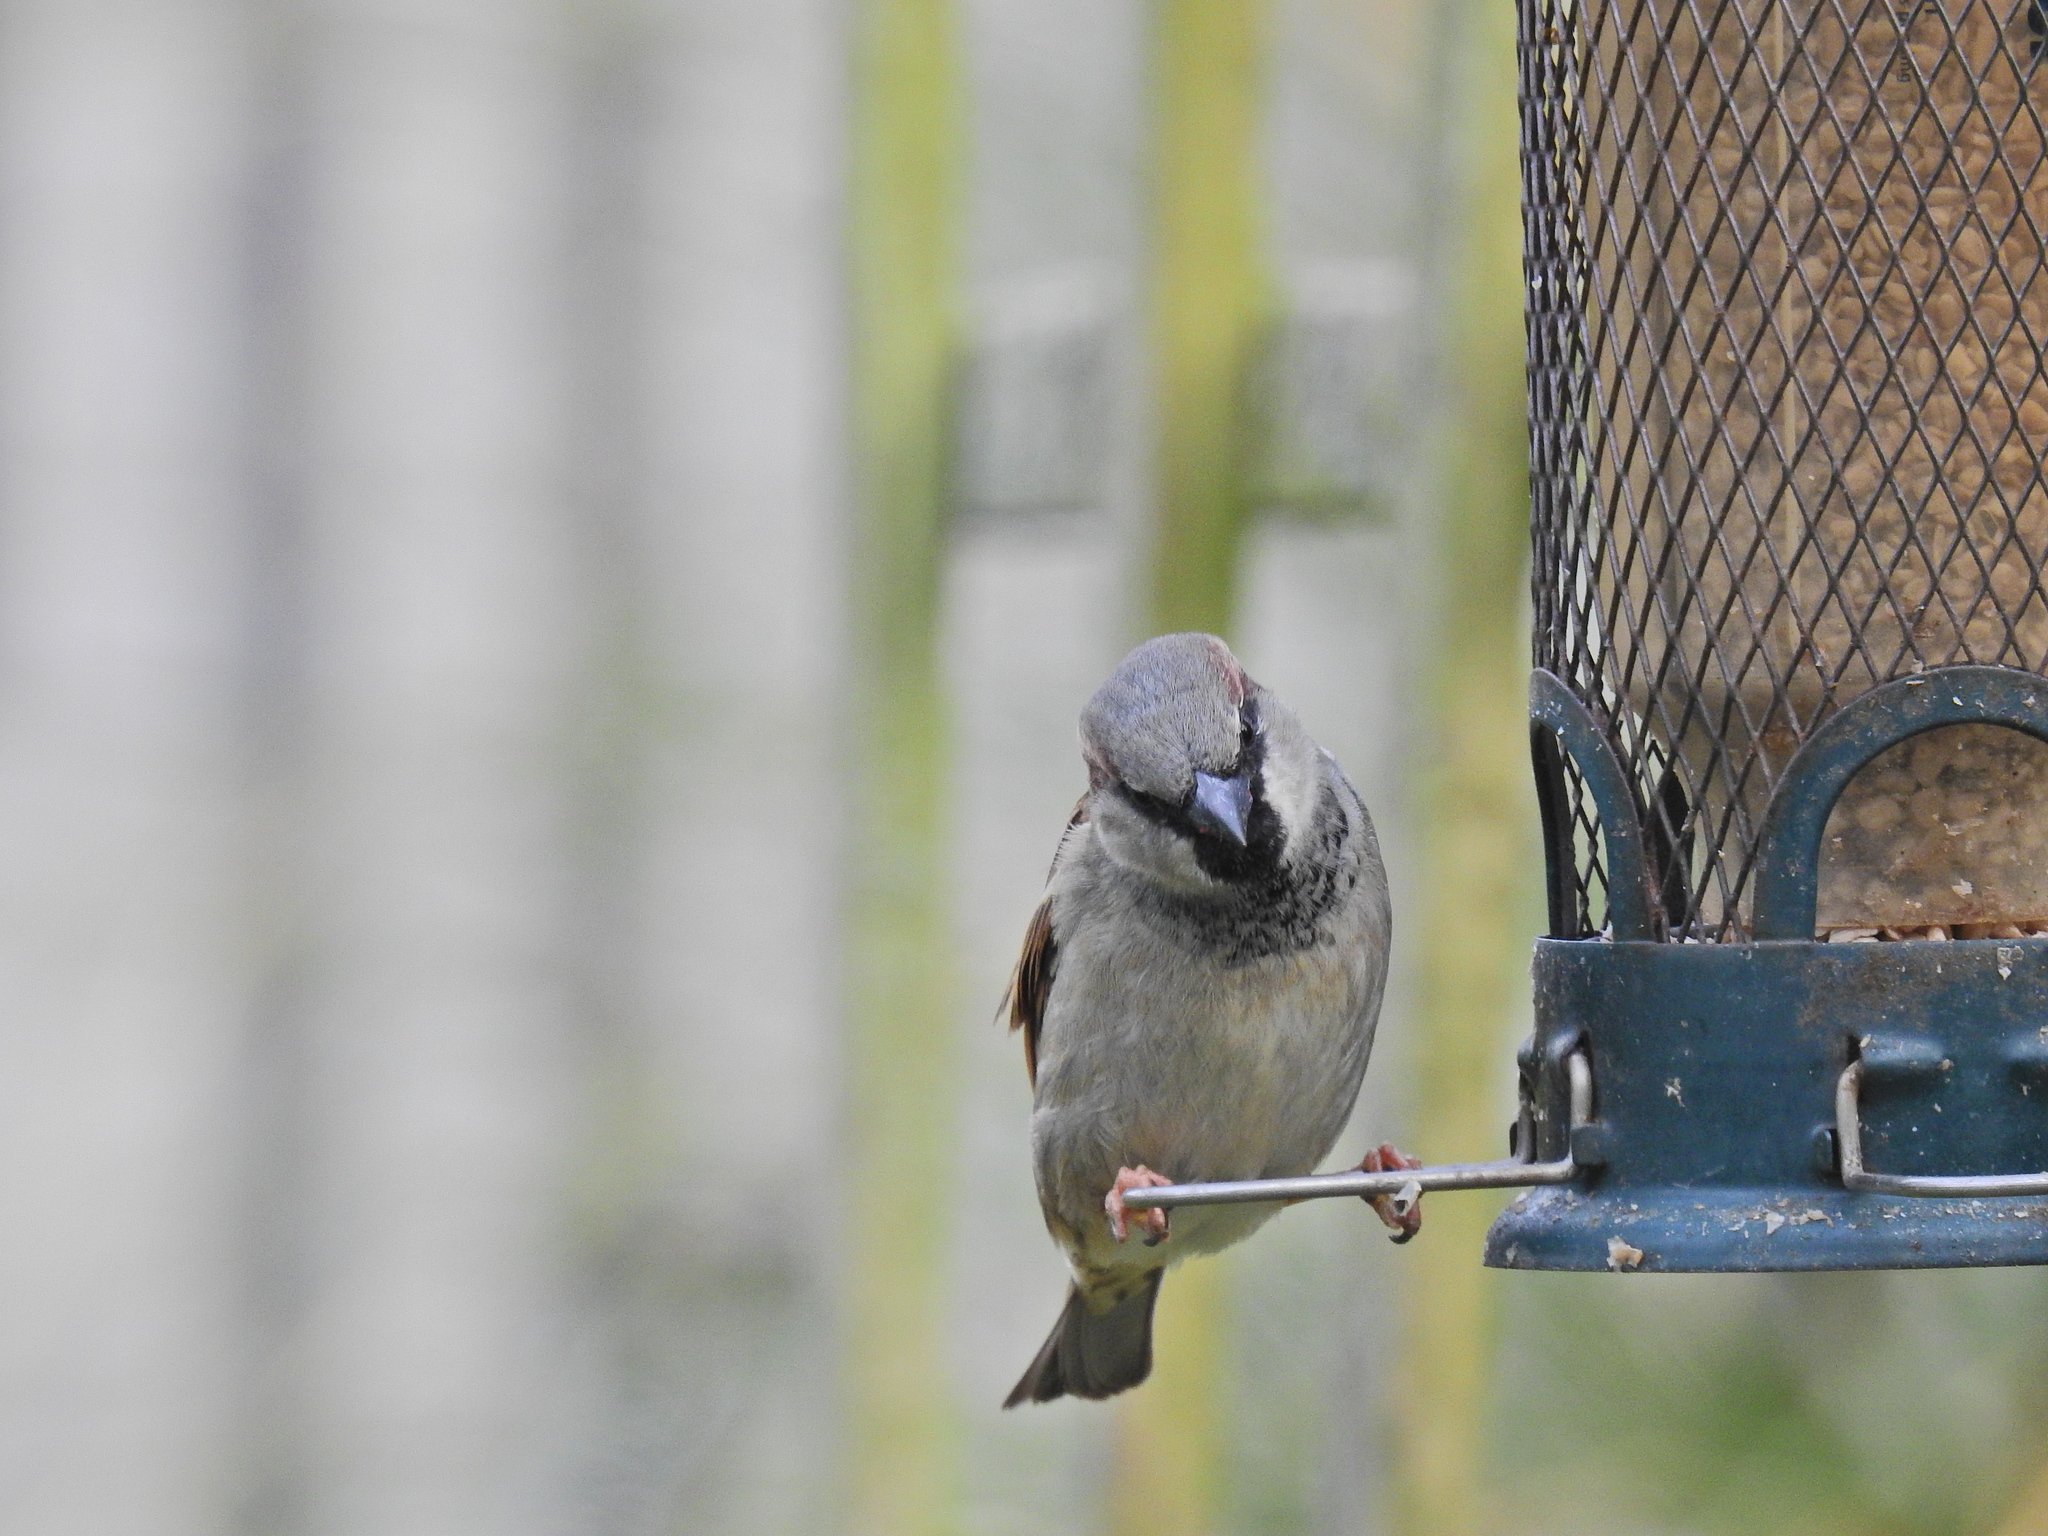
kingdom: Animalia
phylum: Chordata
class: Aves
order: Passeriformes
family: Passeridae
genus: Passer
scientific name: Passer domesticus
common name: House sparrow
